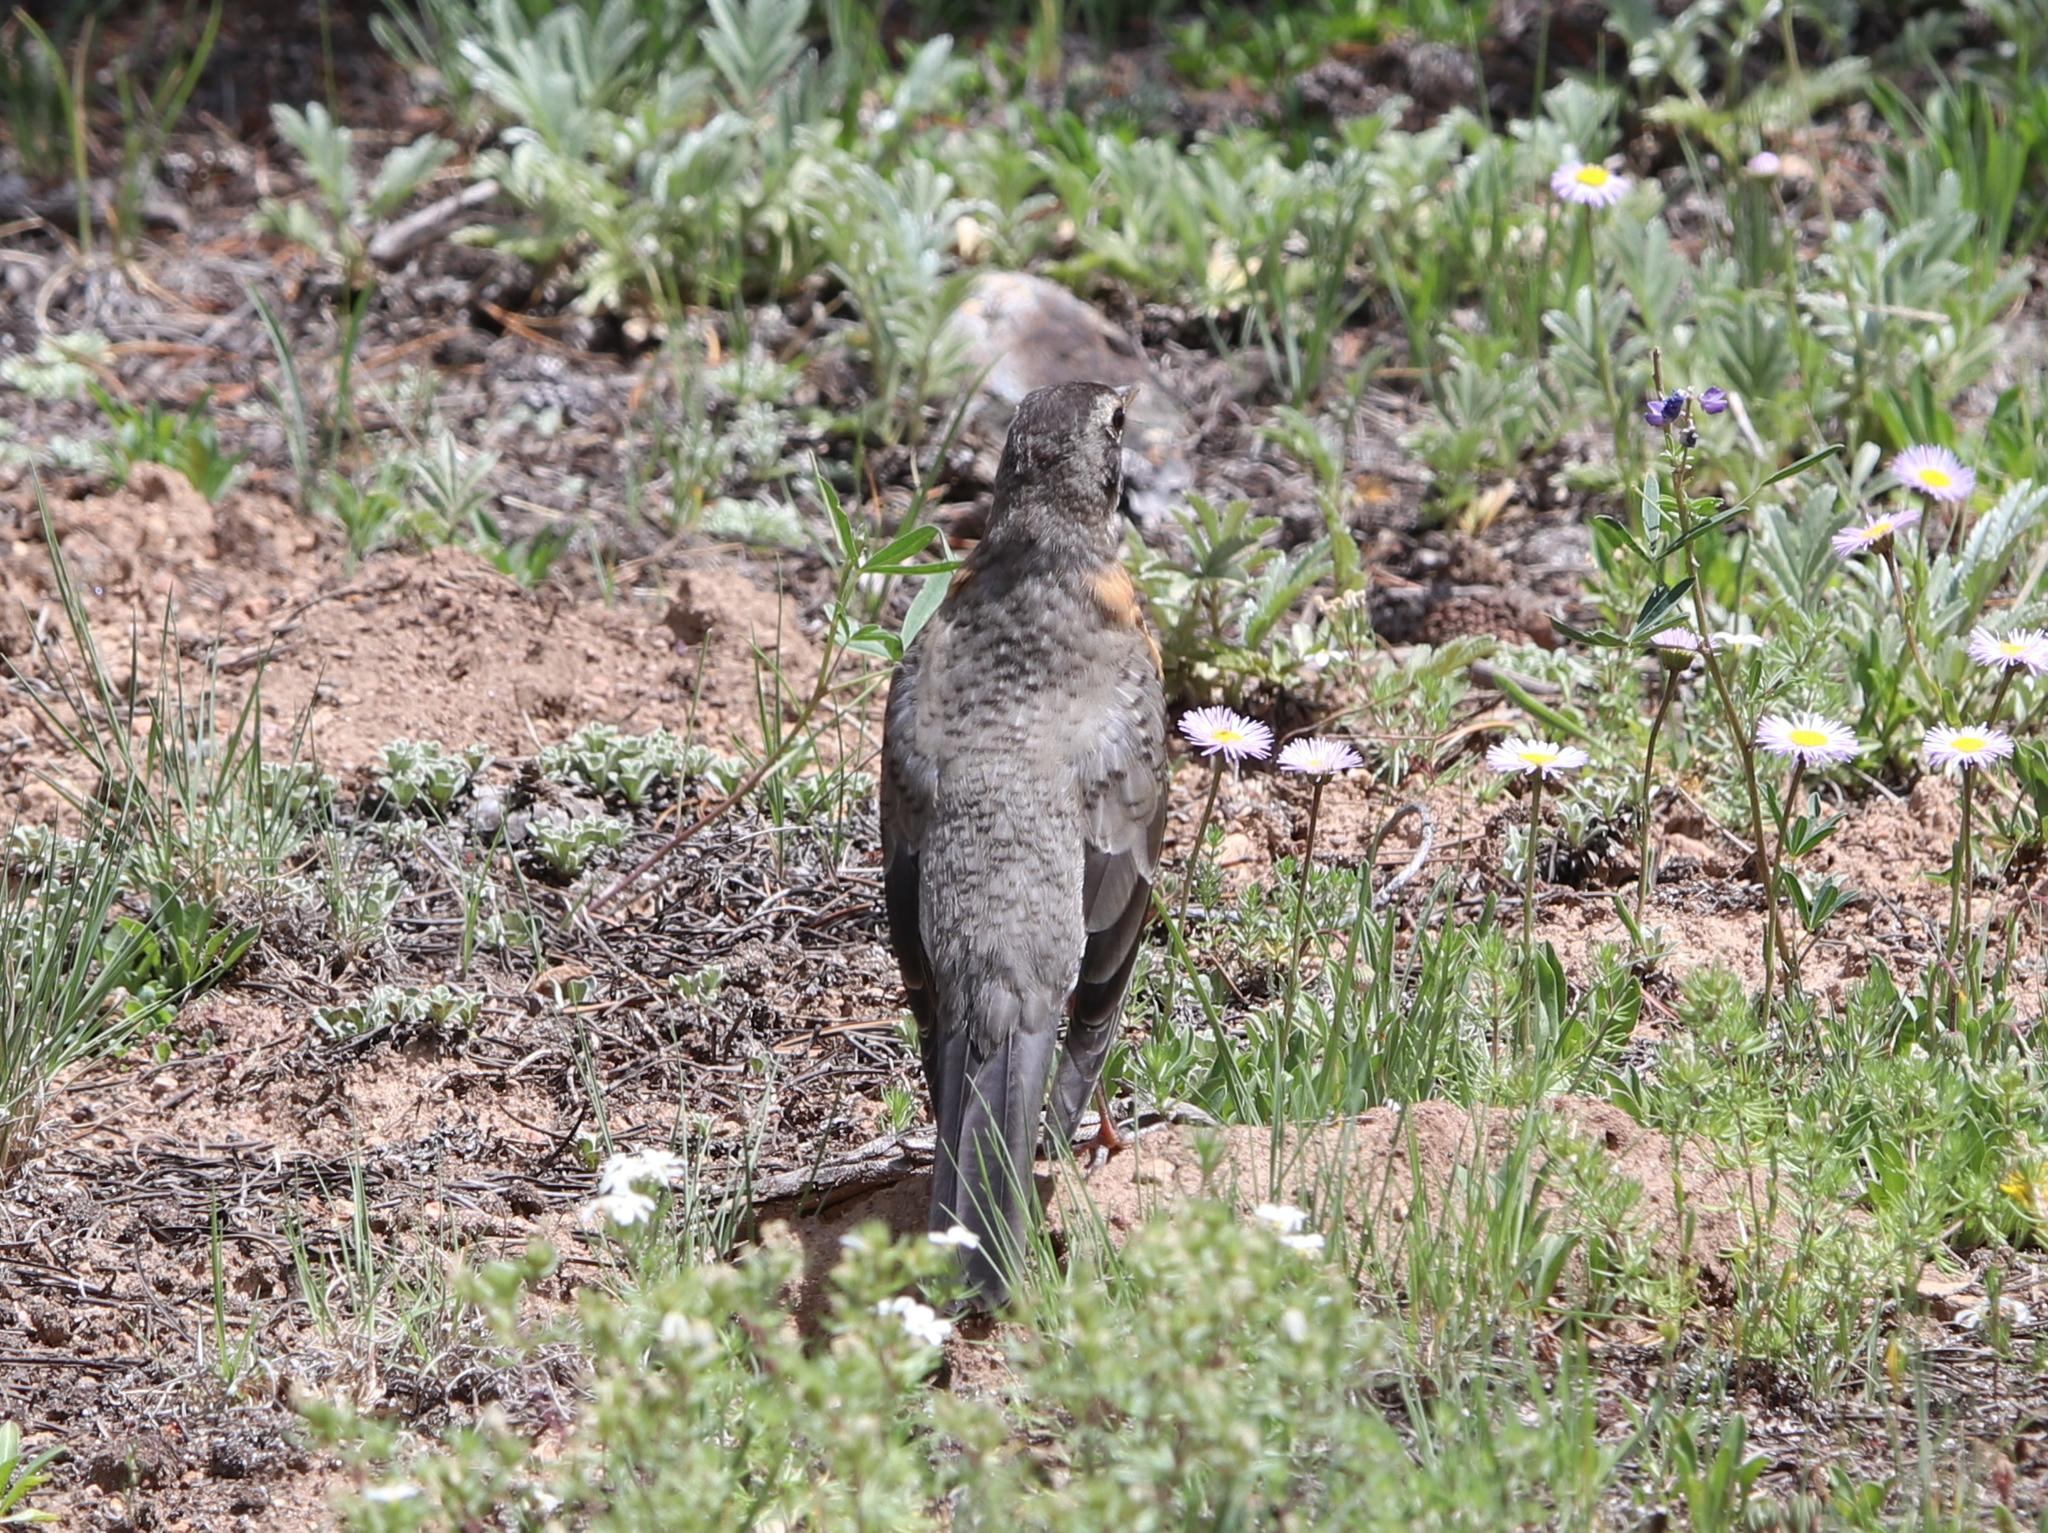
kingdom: Animalia
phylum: Chordata
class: Aves
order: Passeriformes
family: Turdidae
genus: Turdus
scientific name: Turdus migratorius
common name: American robin
